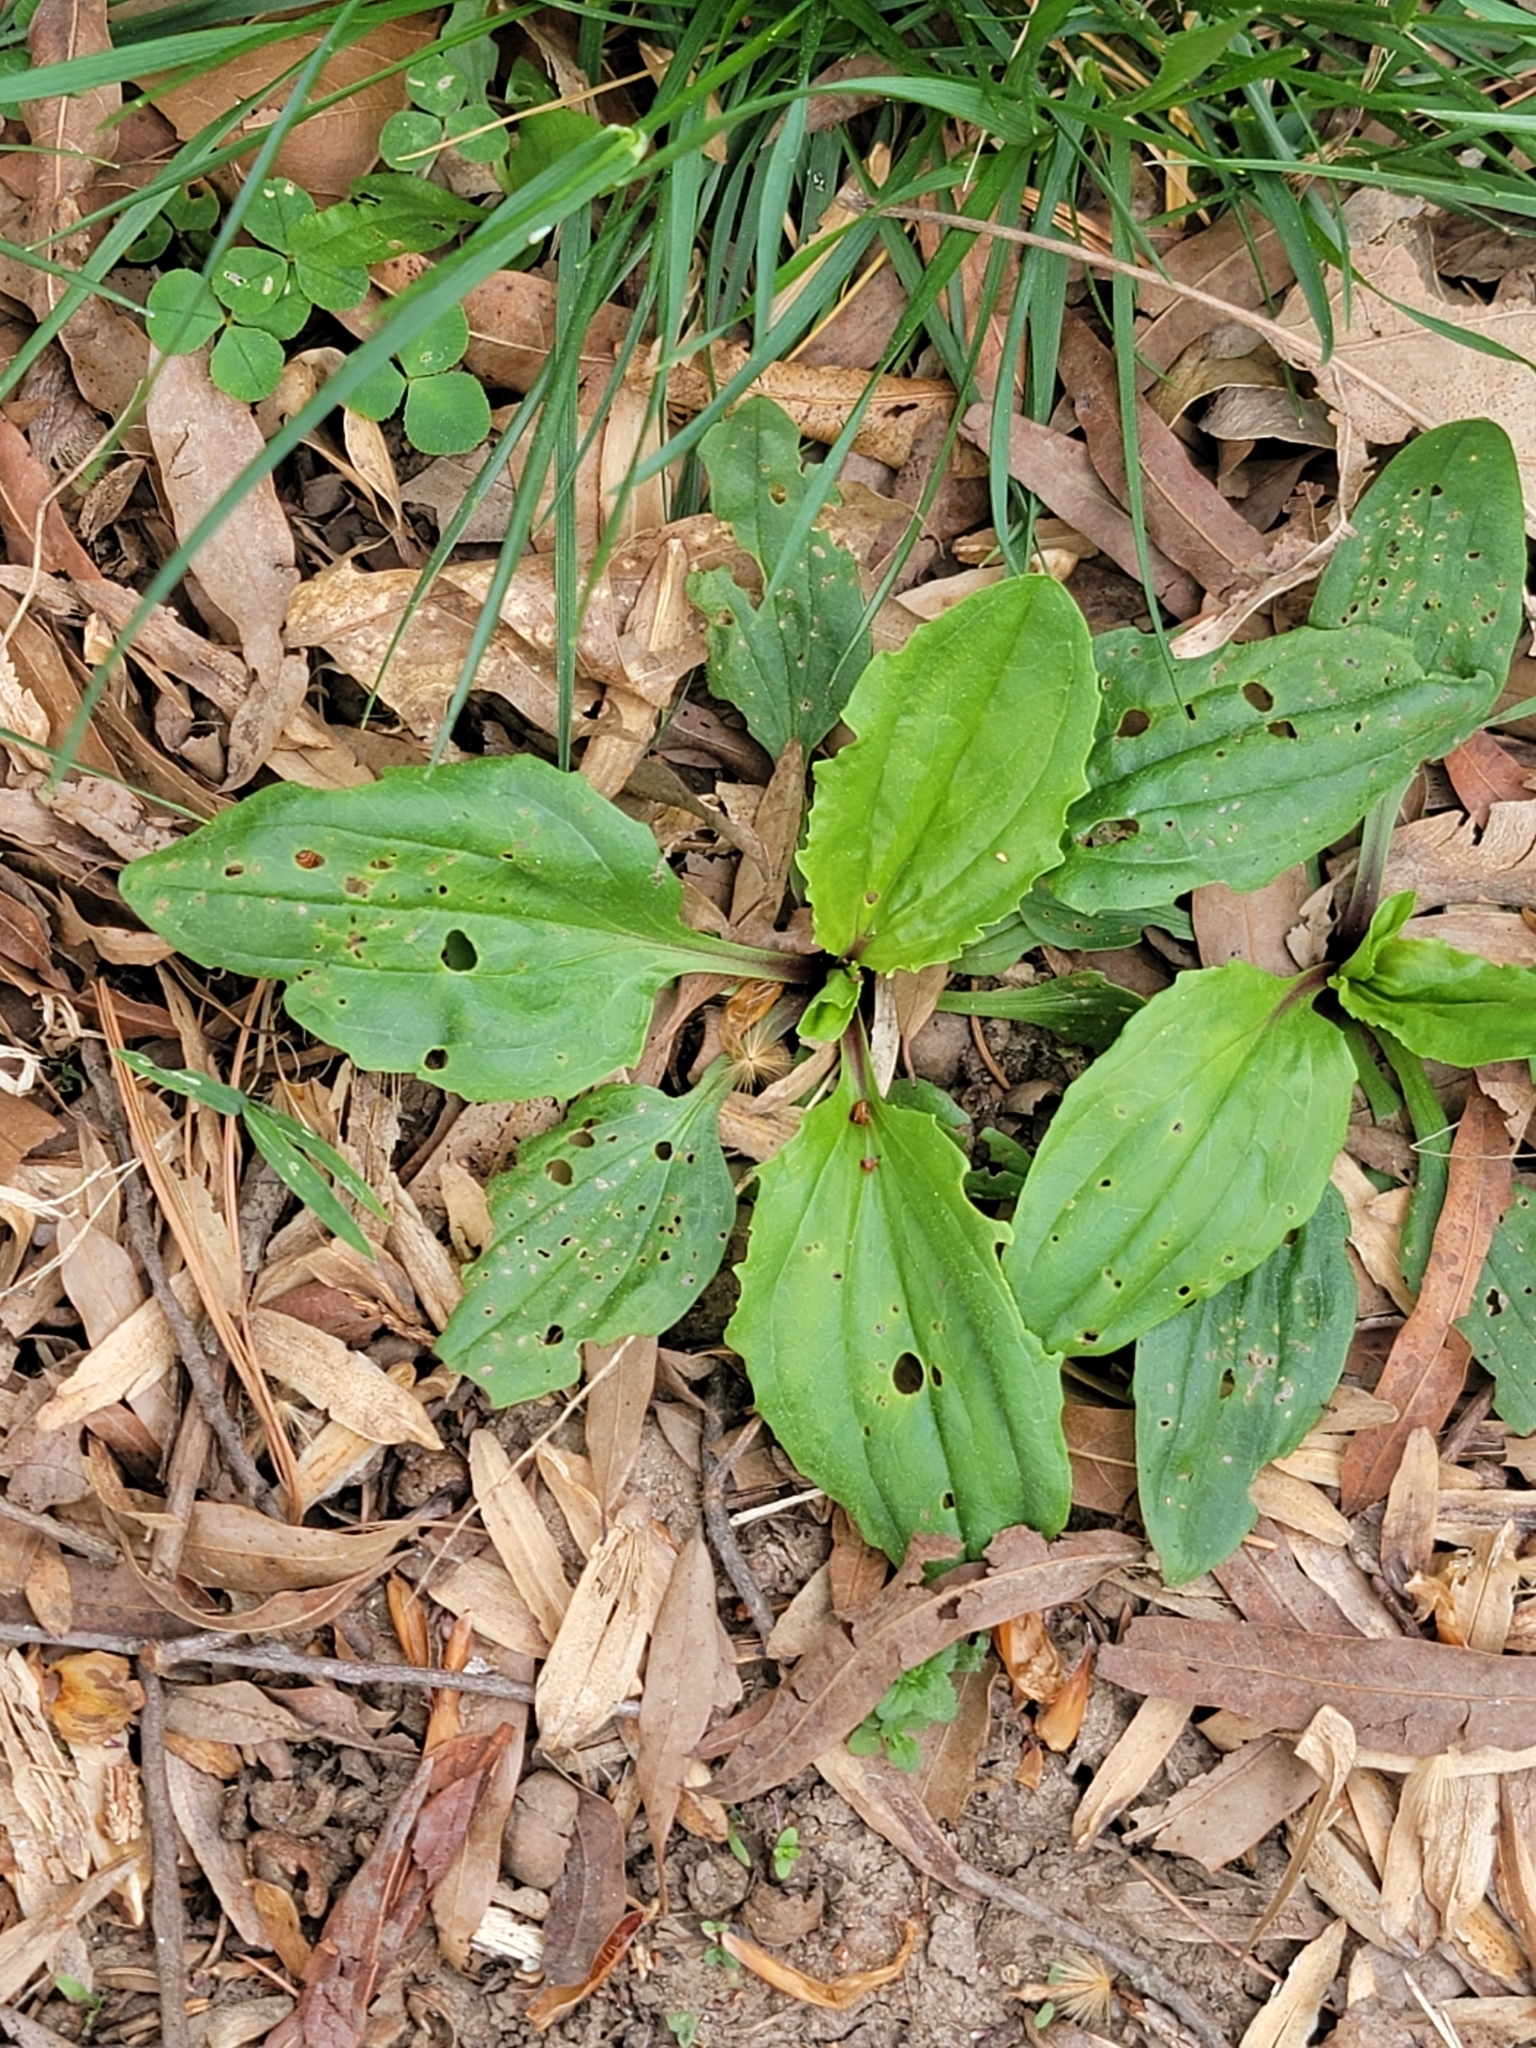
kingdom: Plantae
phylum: Tracheophyta
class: Magnoliopsida
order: Lamiales
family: Plantaginaceae
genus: Plantago
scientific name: Plantago rugelii
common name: American plantain
